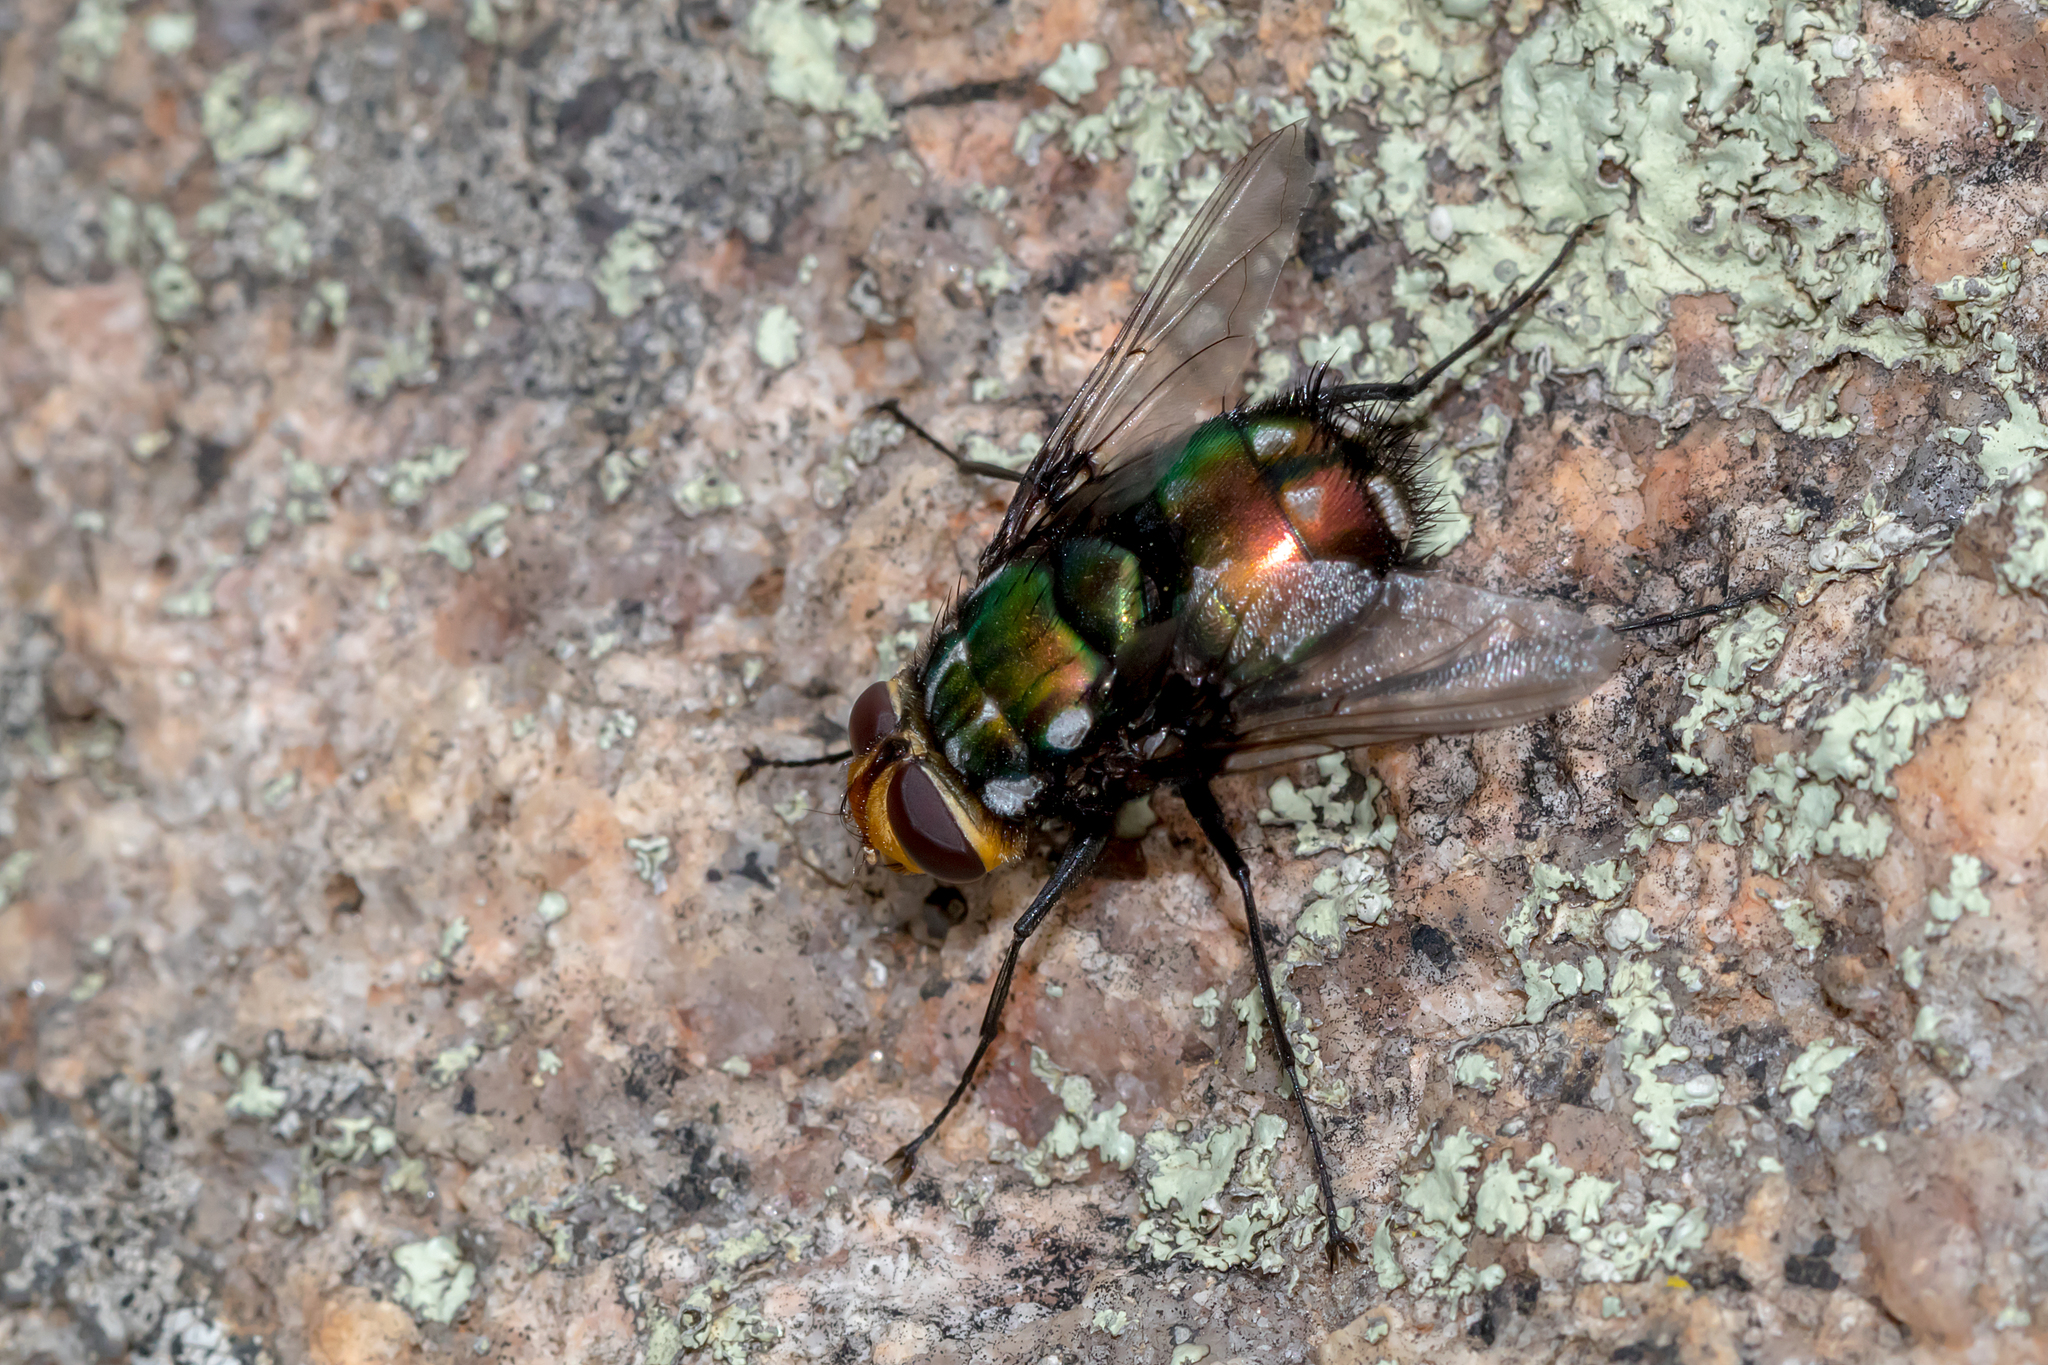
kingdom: Animalia
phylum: Arthropoda
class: Insecta
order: Diptera
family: Tachinidae
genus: Rutilia
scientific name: Rutilia argentifera
